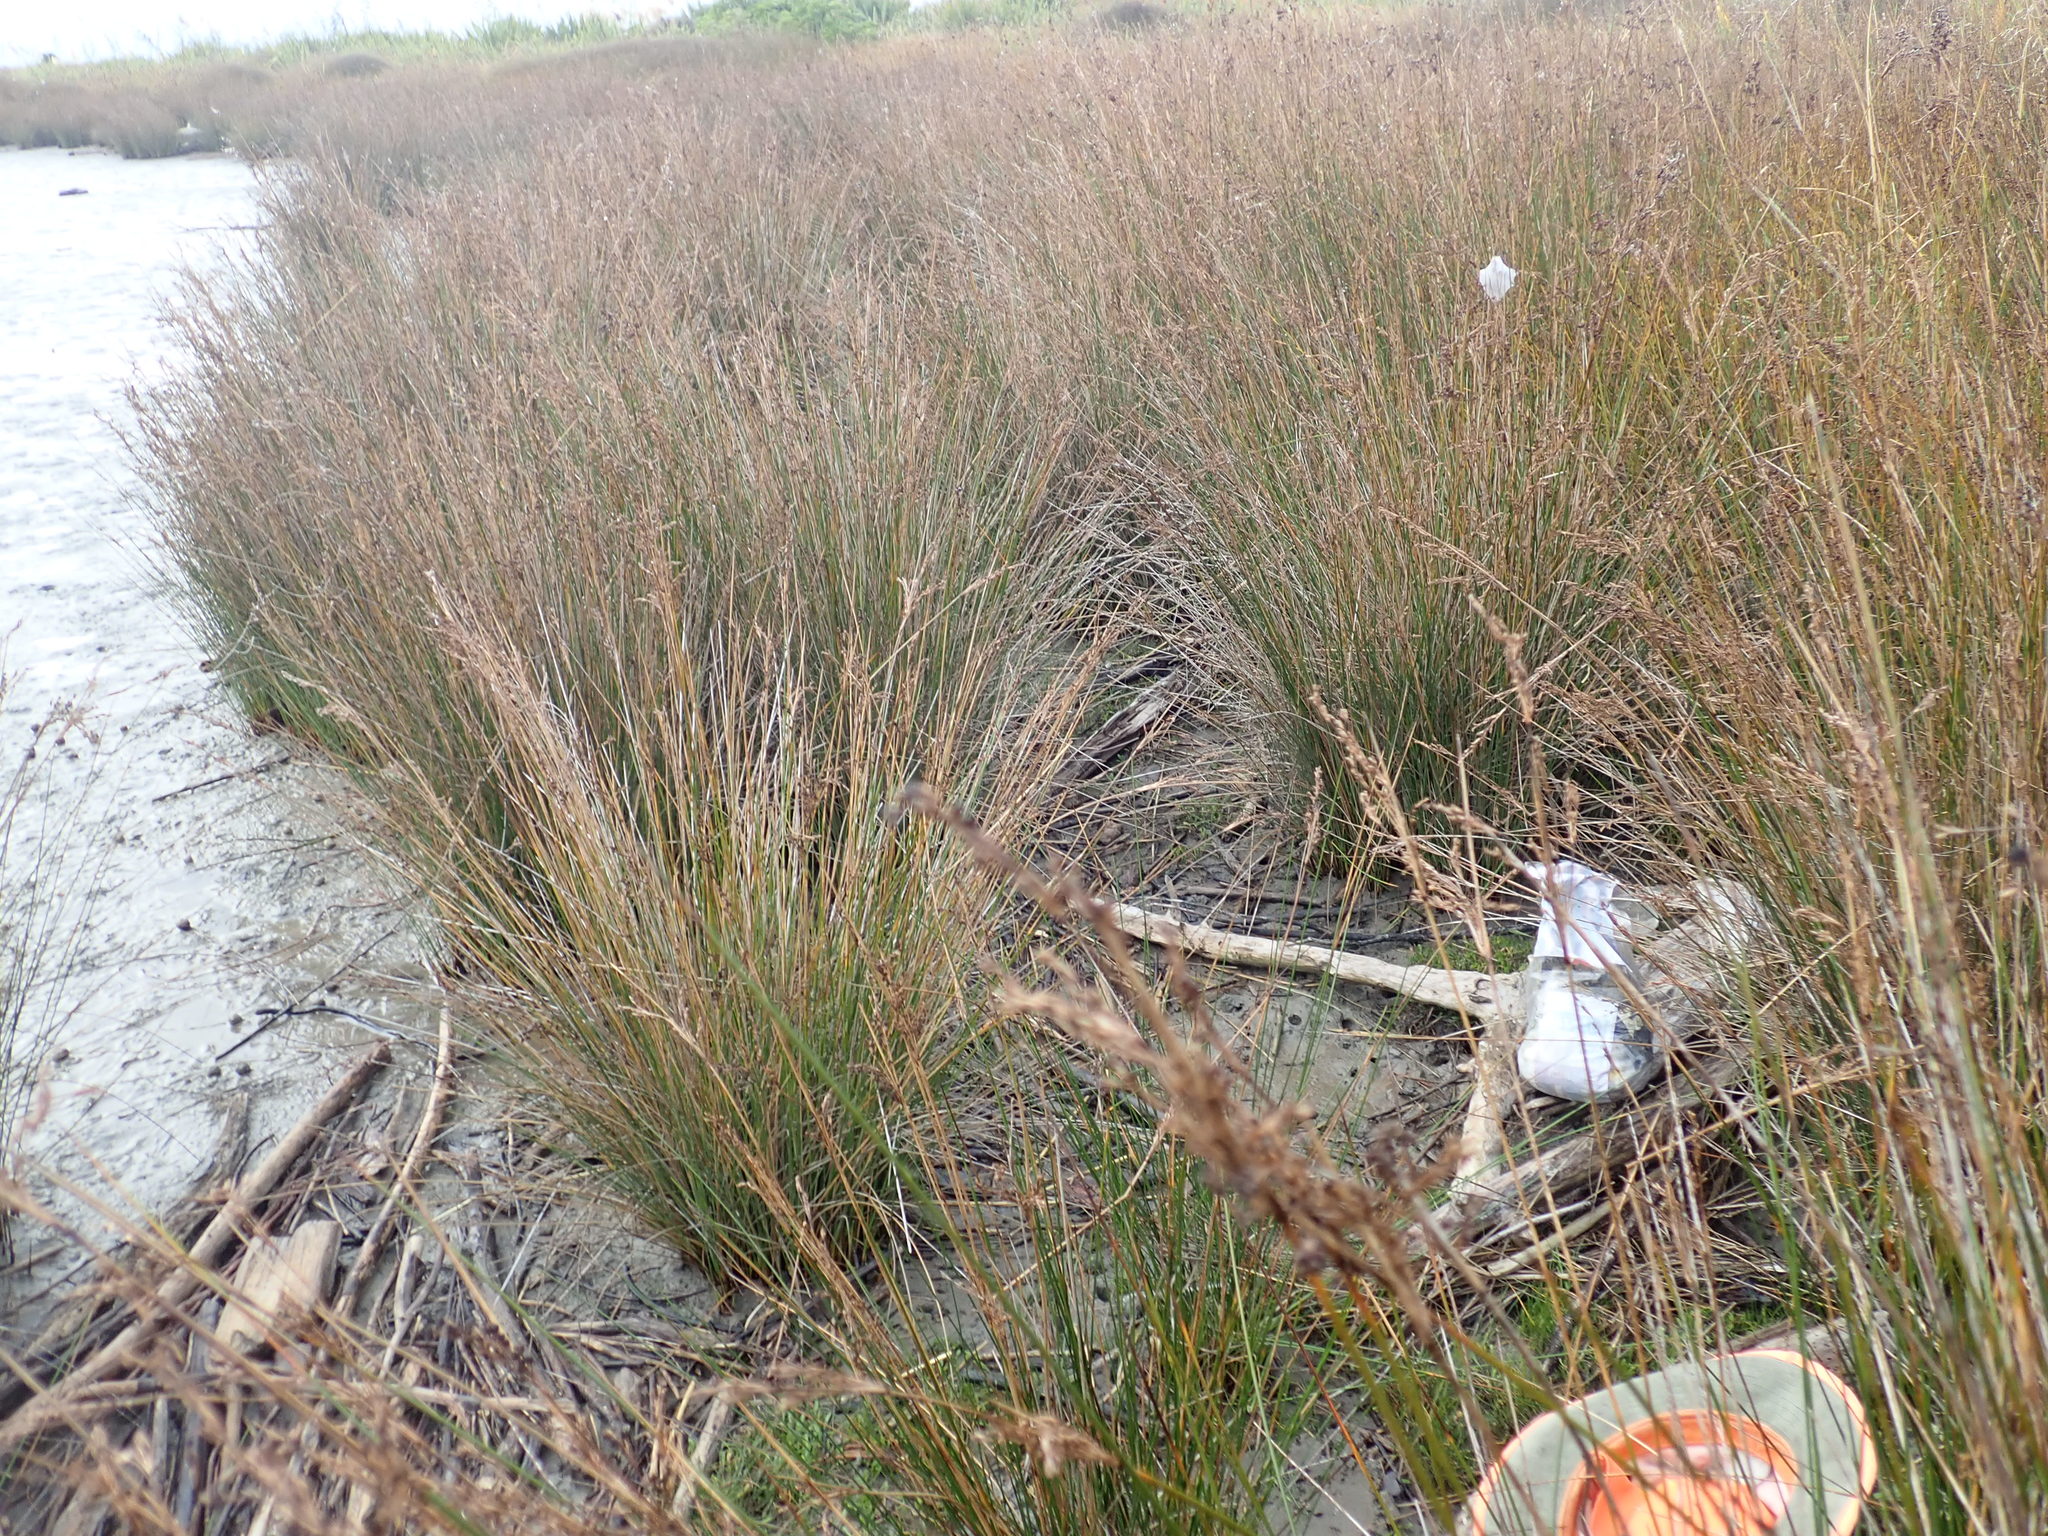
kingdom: Animalia
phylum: Arthropoda
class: Malacostraca
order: Decapoda
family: Varunidae
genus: Austrohelice
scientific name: Austrohelice crassa
